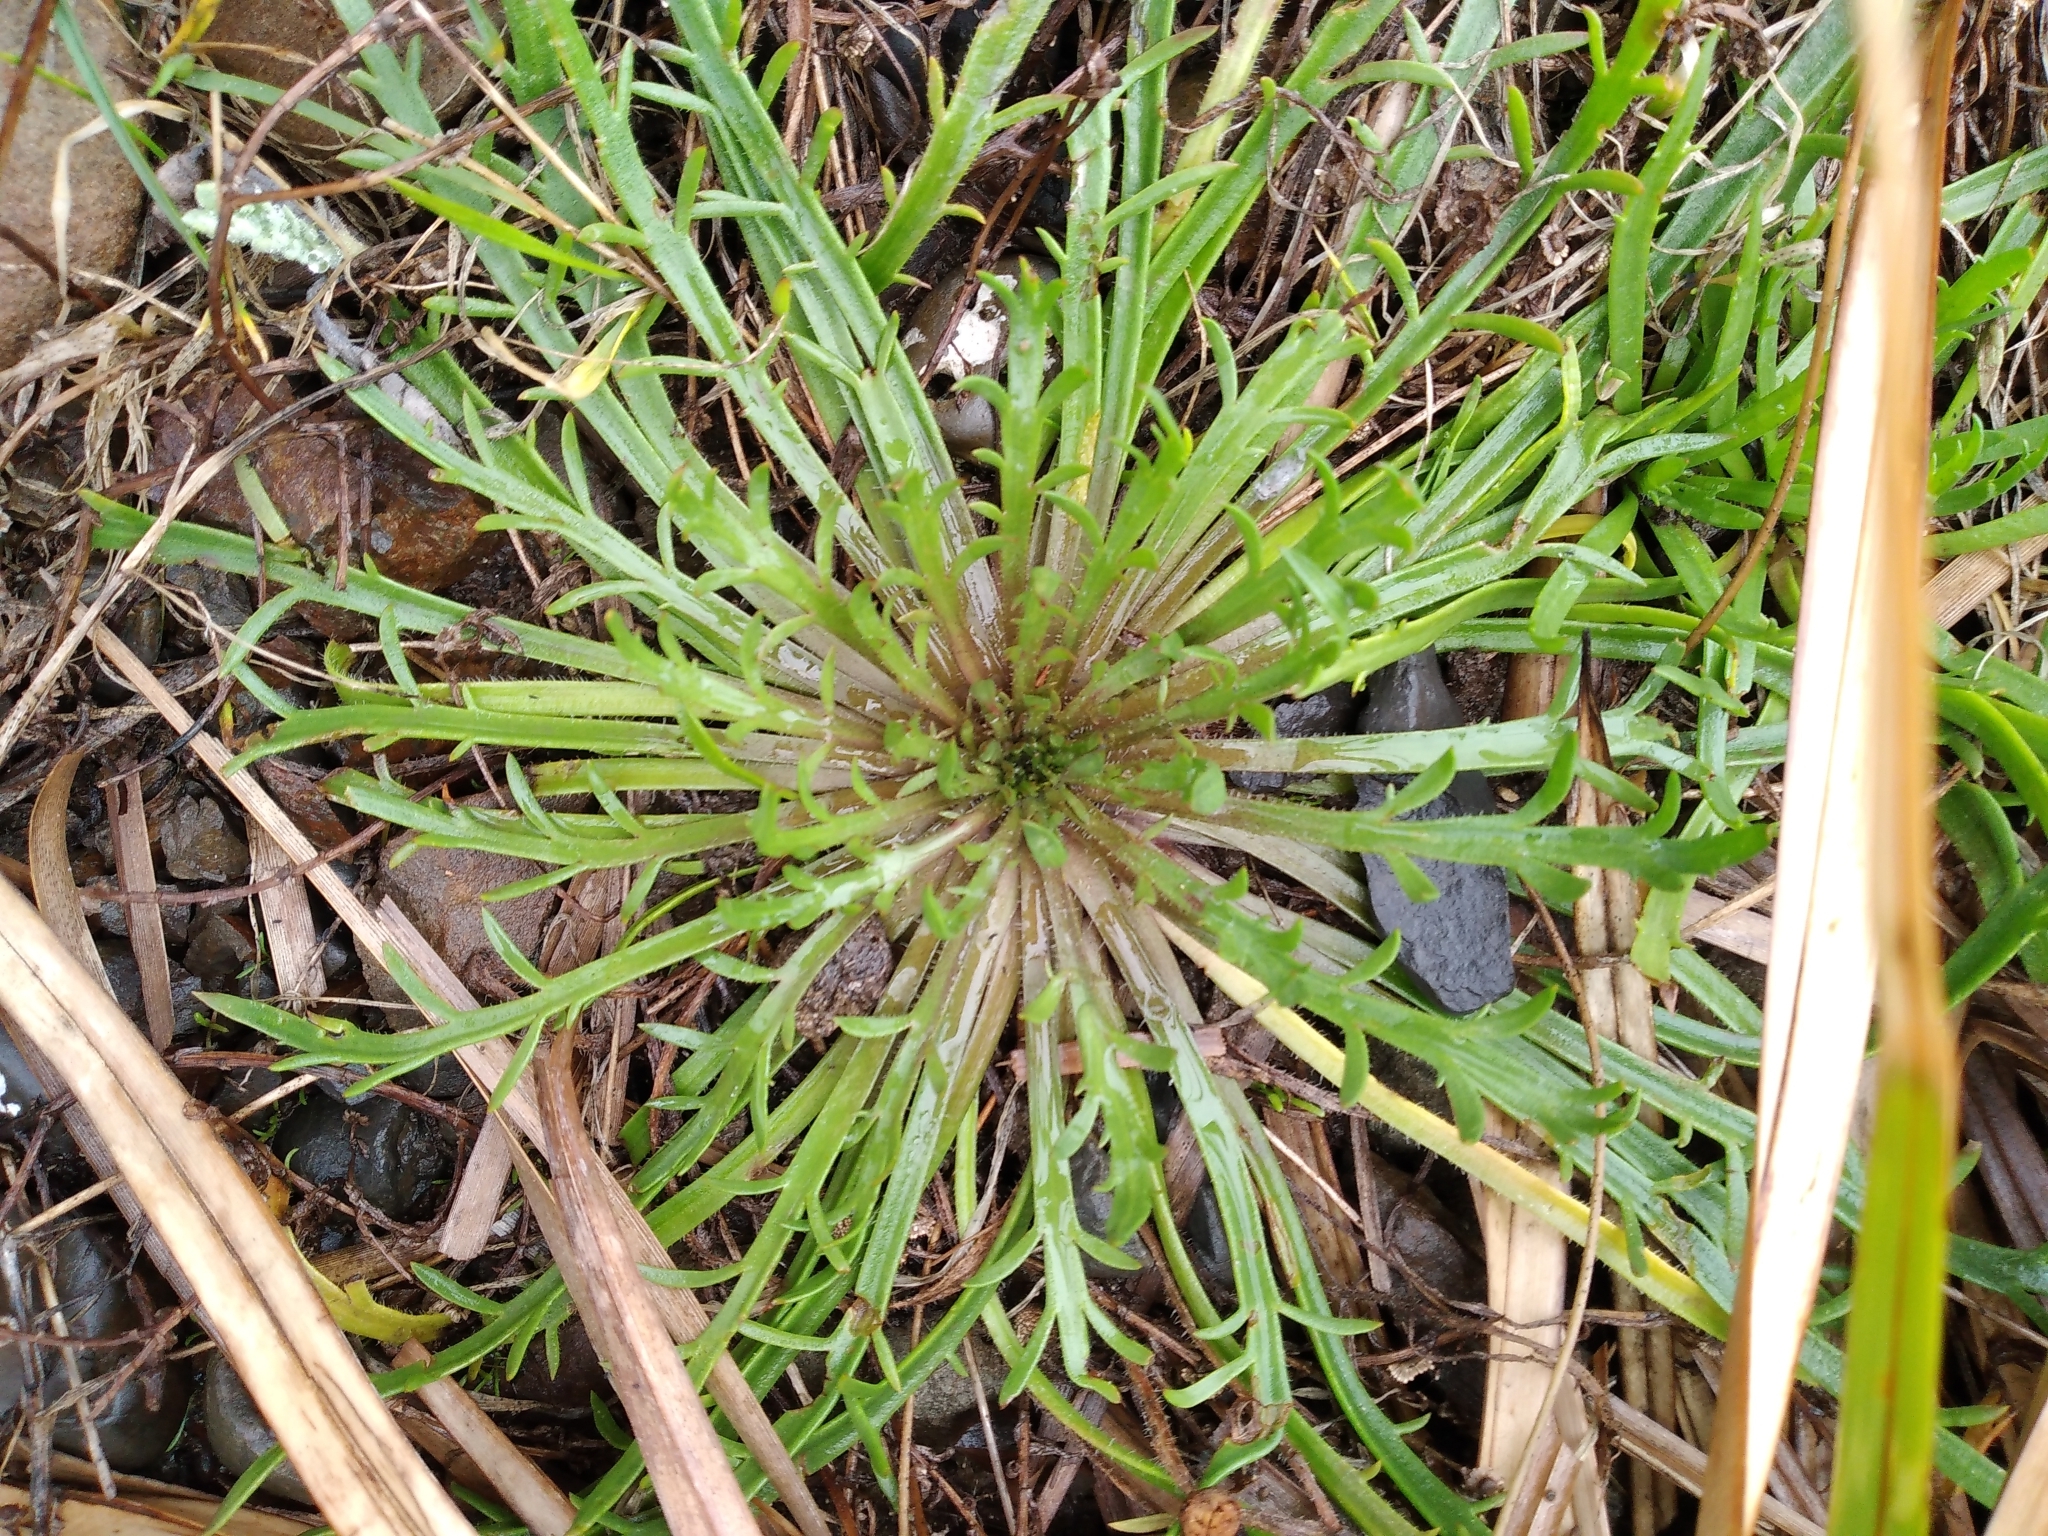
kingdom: Plantae
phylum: Tracheophyta
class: Magnoliopsida
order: Lamiales
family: Plantaginaceae
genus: Plantago
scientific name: Plantago coronopus
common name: Buck's-horn plantain
